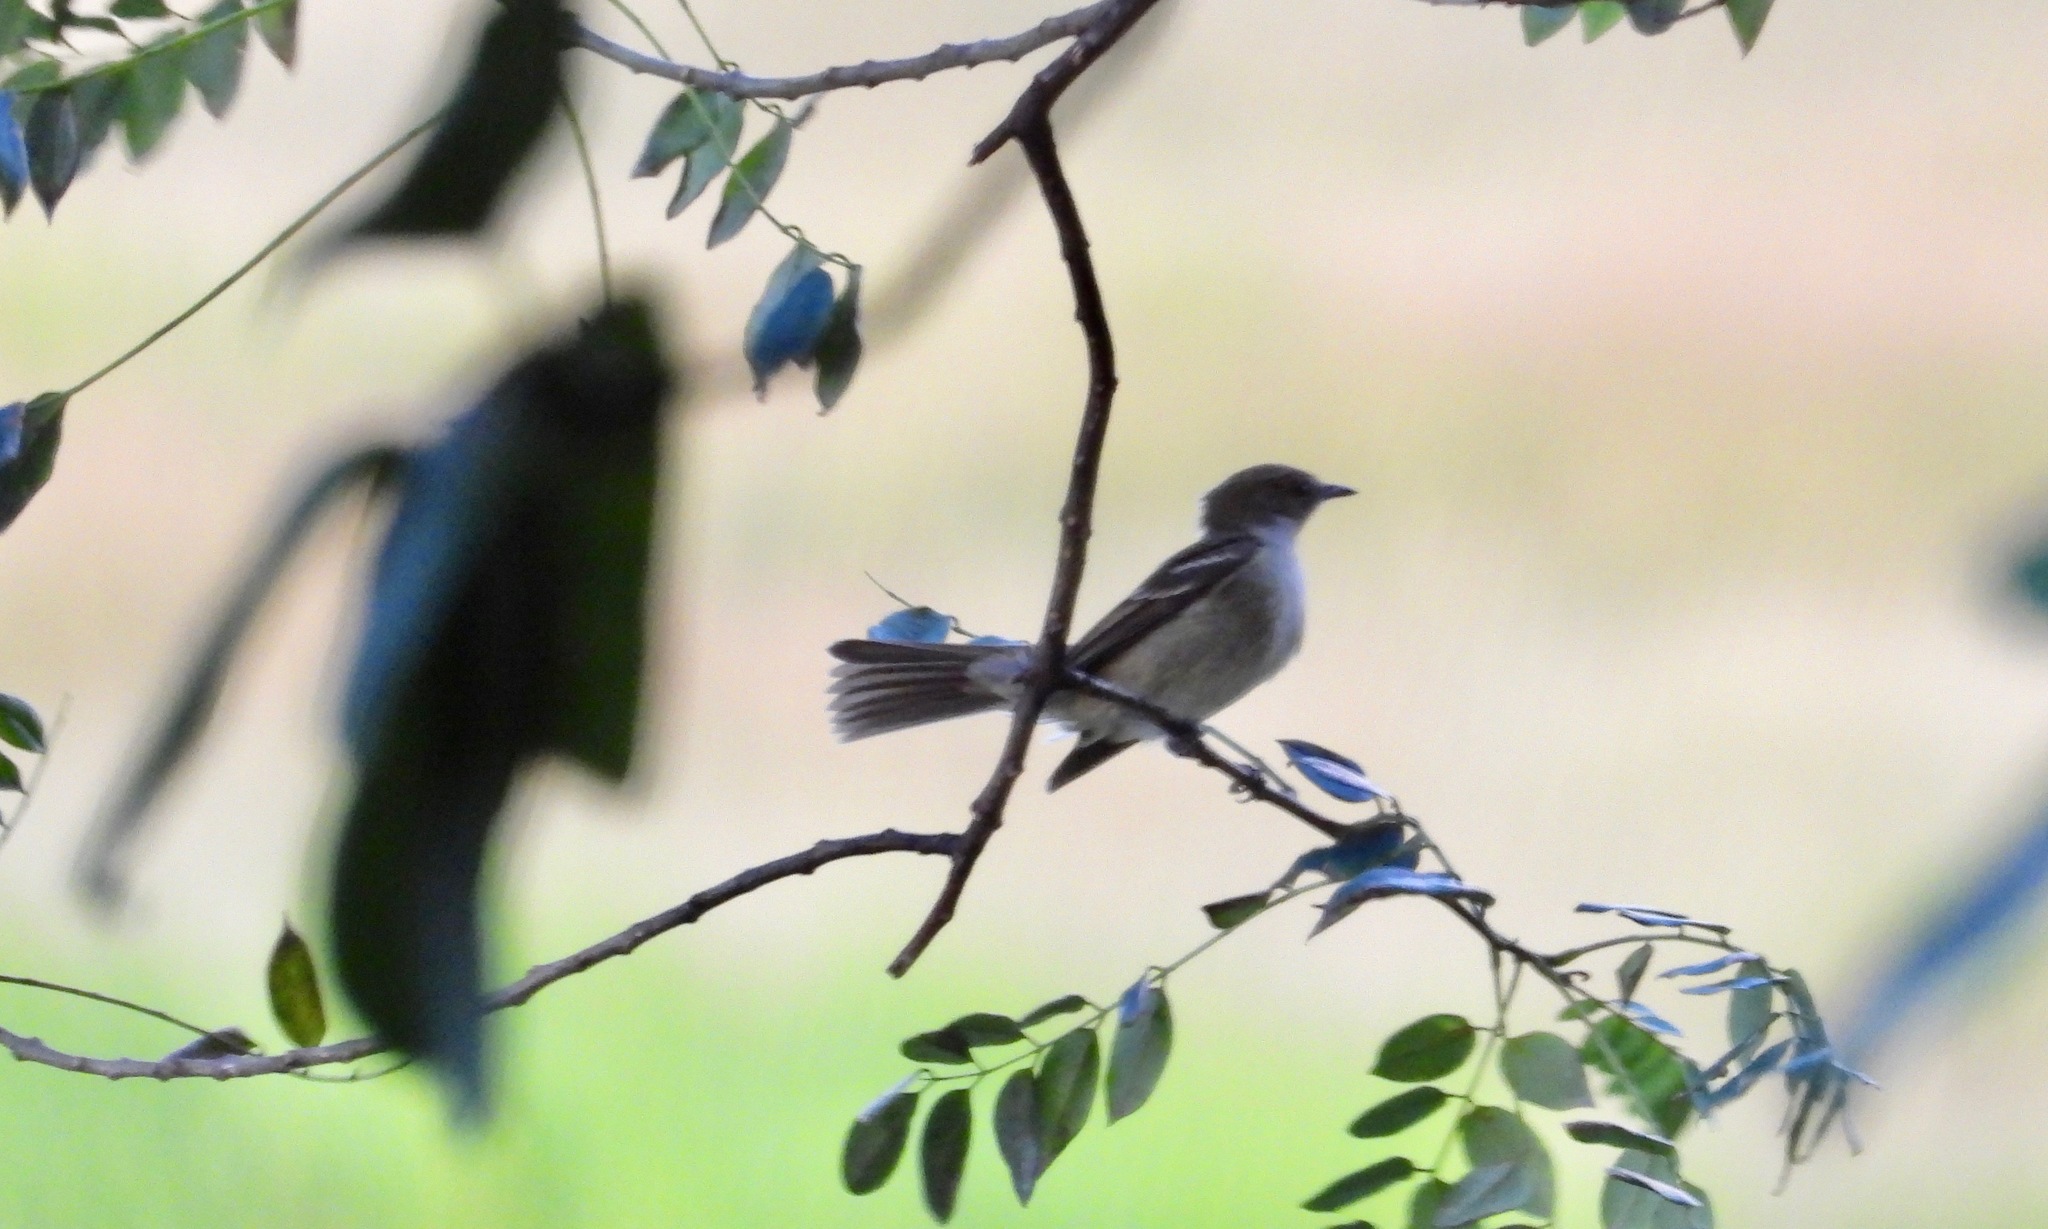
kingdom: Animalia
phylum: Chordata
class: Aves
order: Passeriformes
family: Tyrannidae
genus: Elaenia
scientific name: Elaenia martinica
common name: Caribbean elaenia
